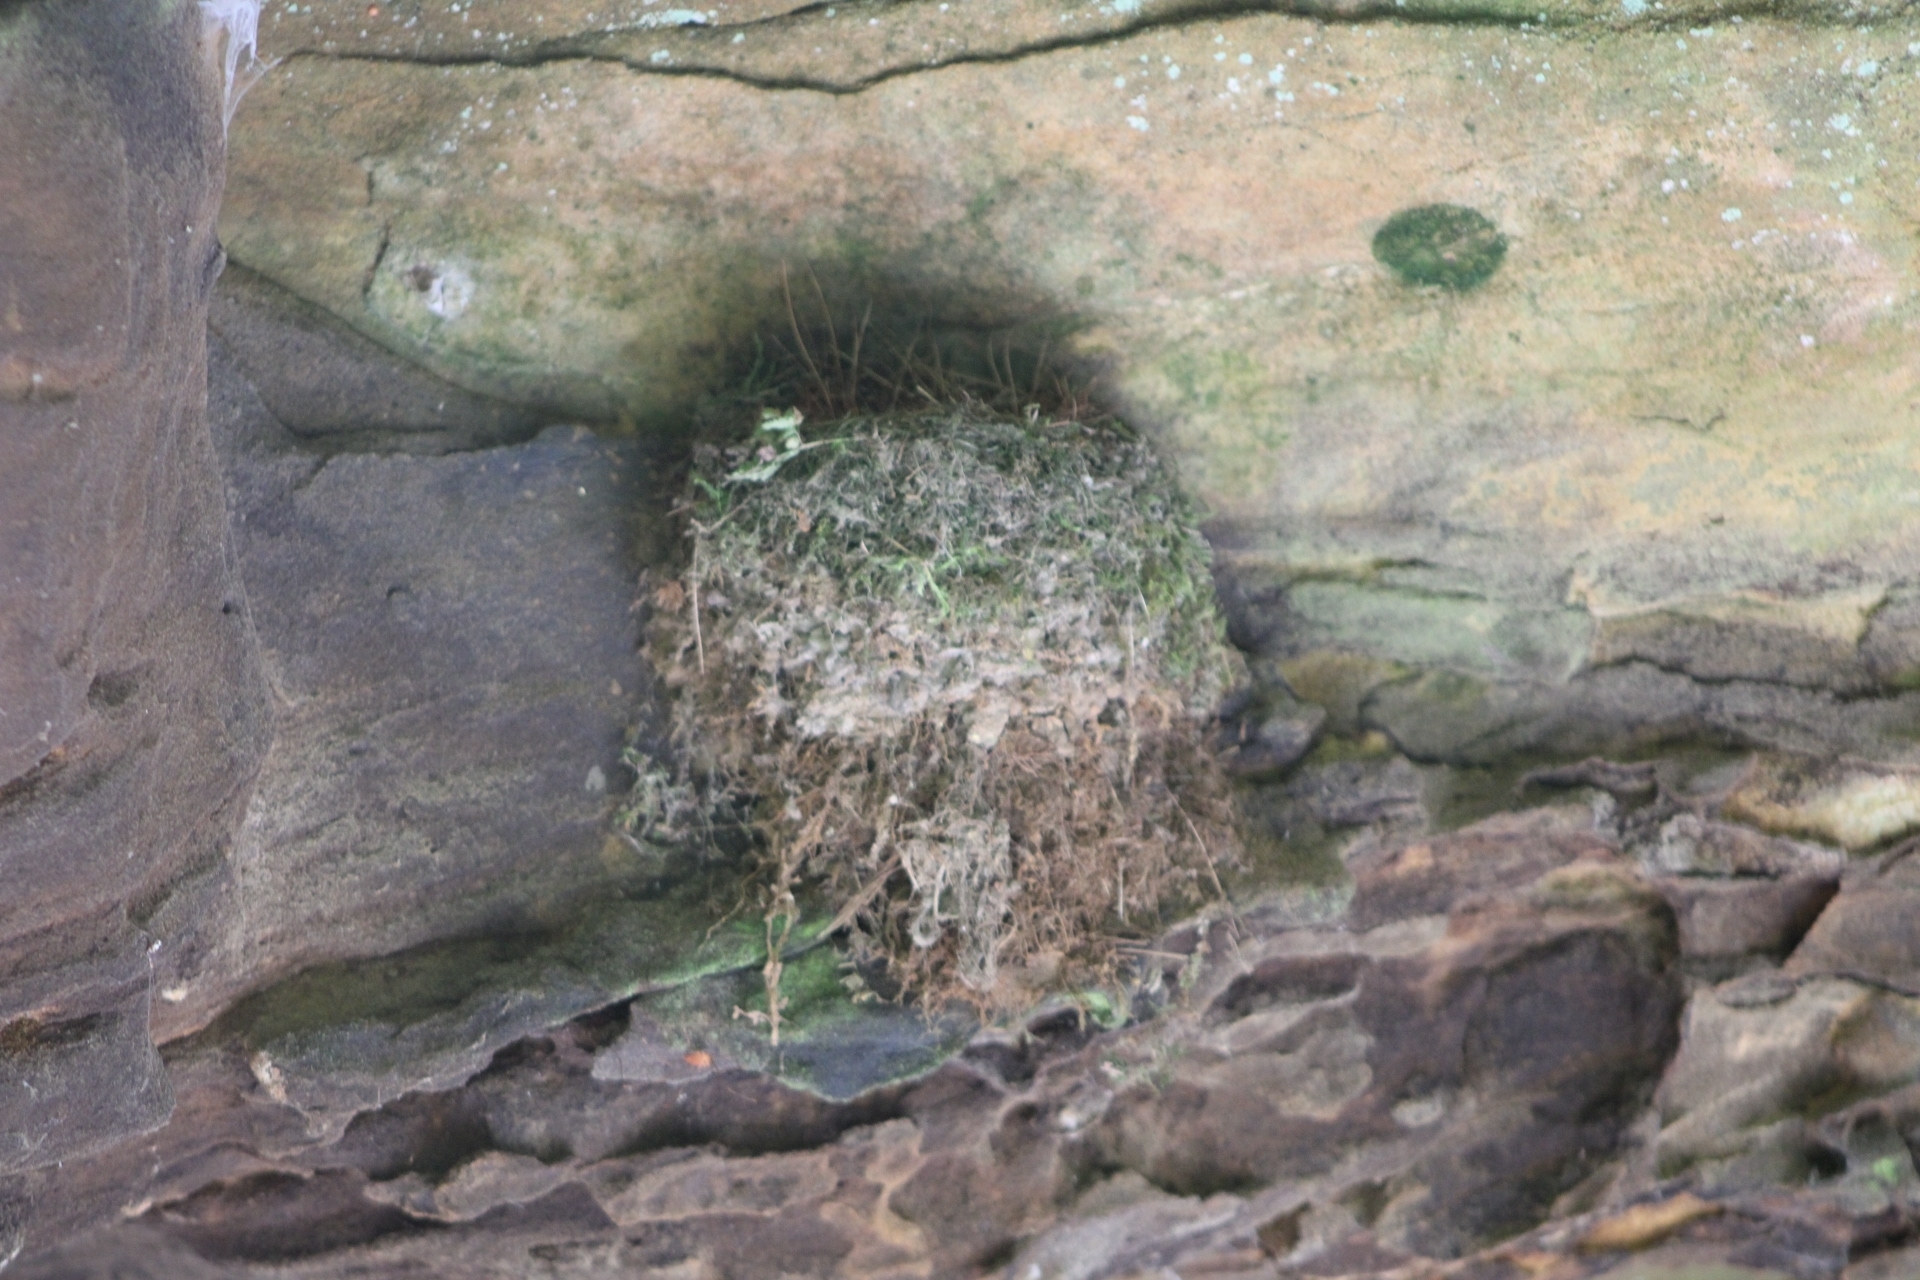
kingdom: Animalia
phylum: Chordata
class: Aves
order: Passeriformes
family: Tyrannidae
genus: Sayornis
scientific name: Sayornis phoebe
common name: Eastern phoebe
